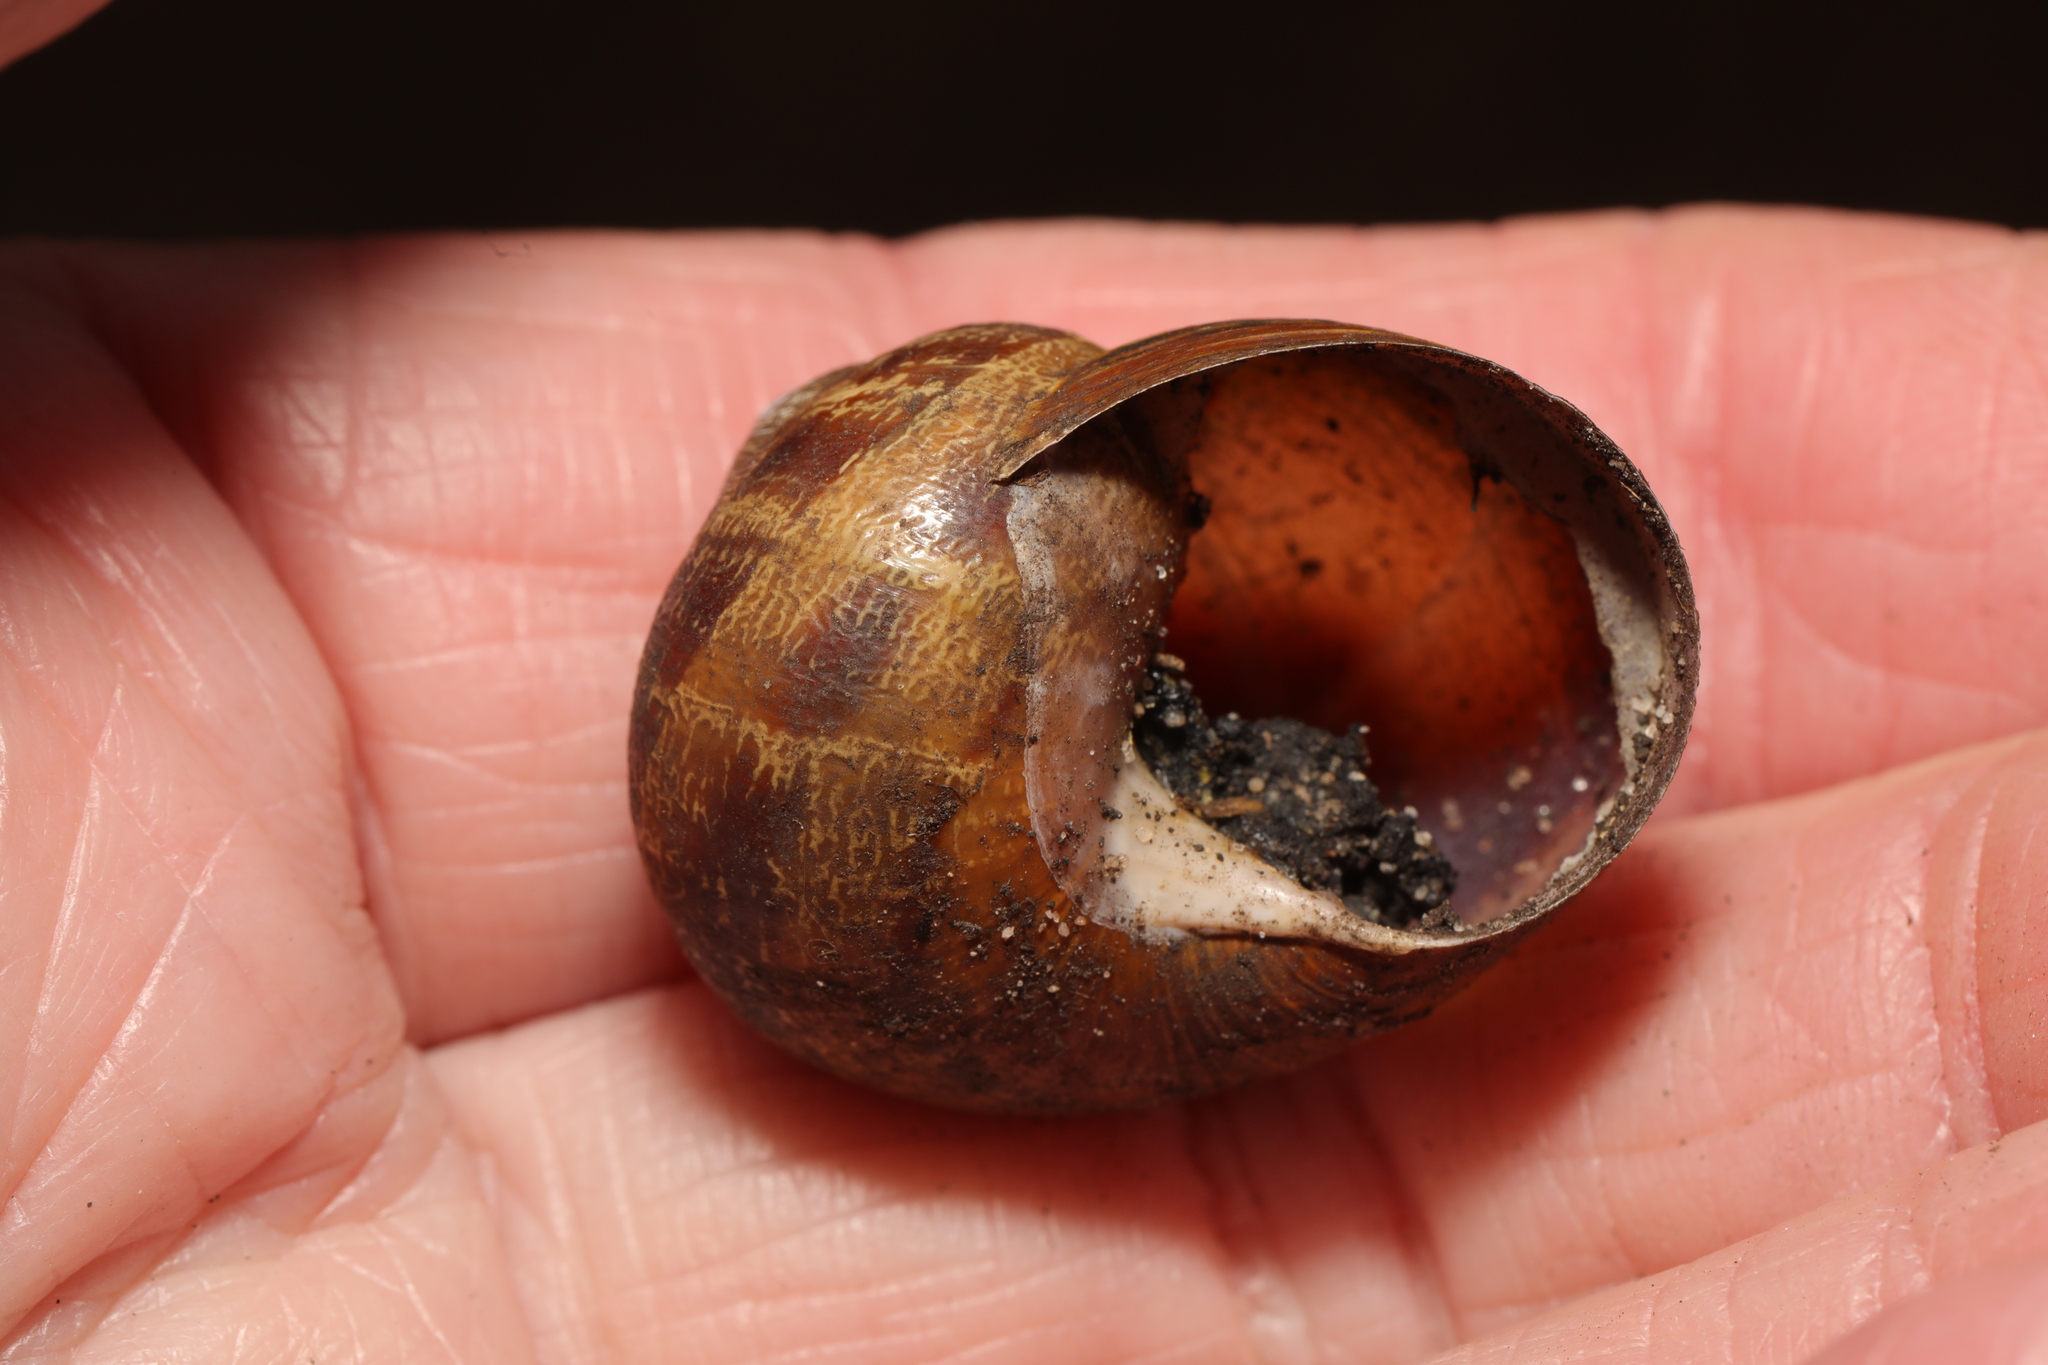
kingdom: Animalia
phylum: Mollusca
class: Gastropoda
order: Stylommatophora
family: Helicidae
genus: Cornu
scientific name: Cornu aspersum
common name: Brown garden snail
